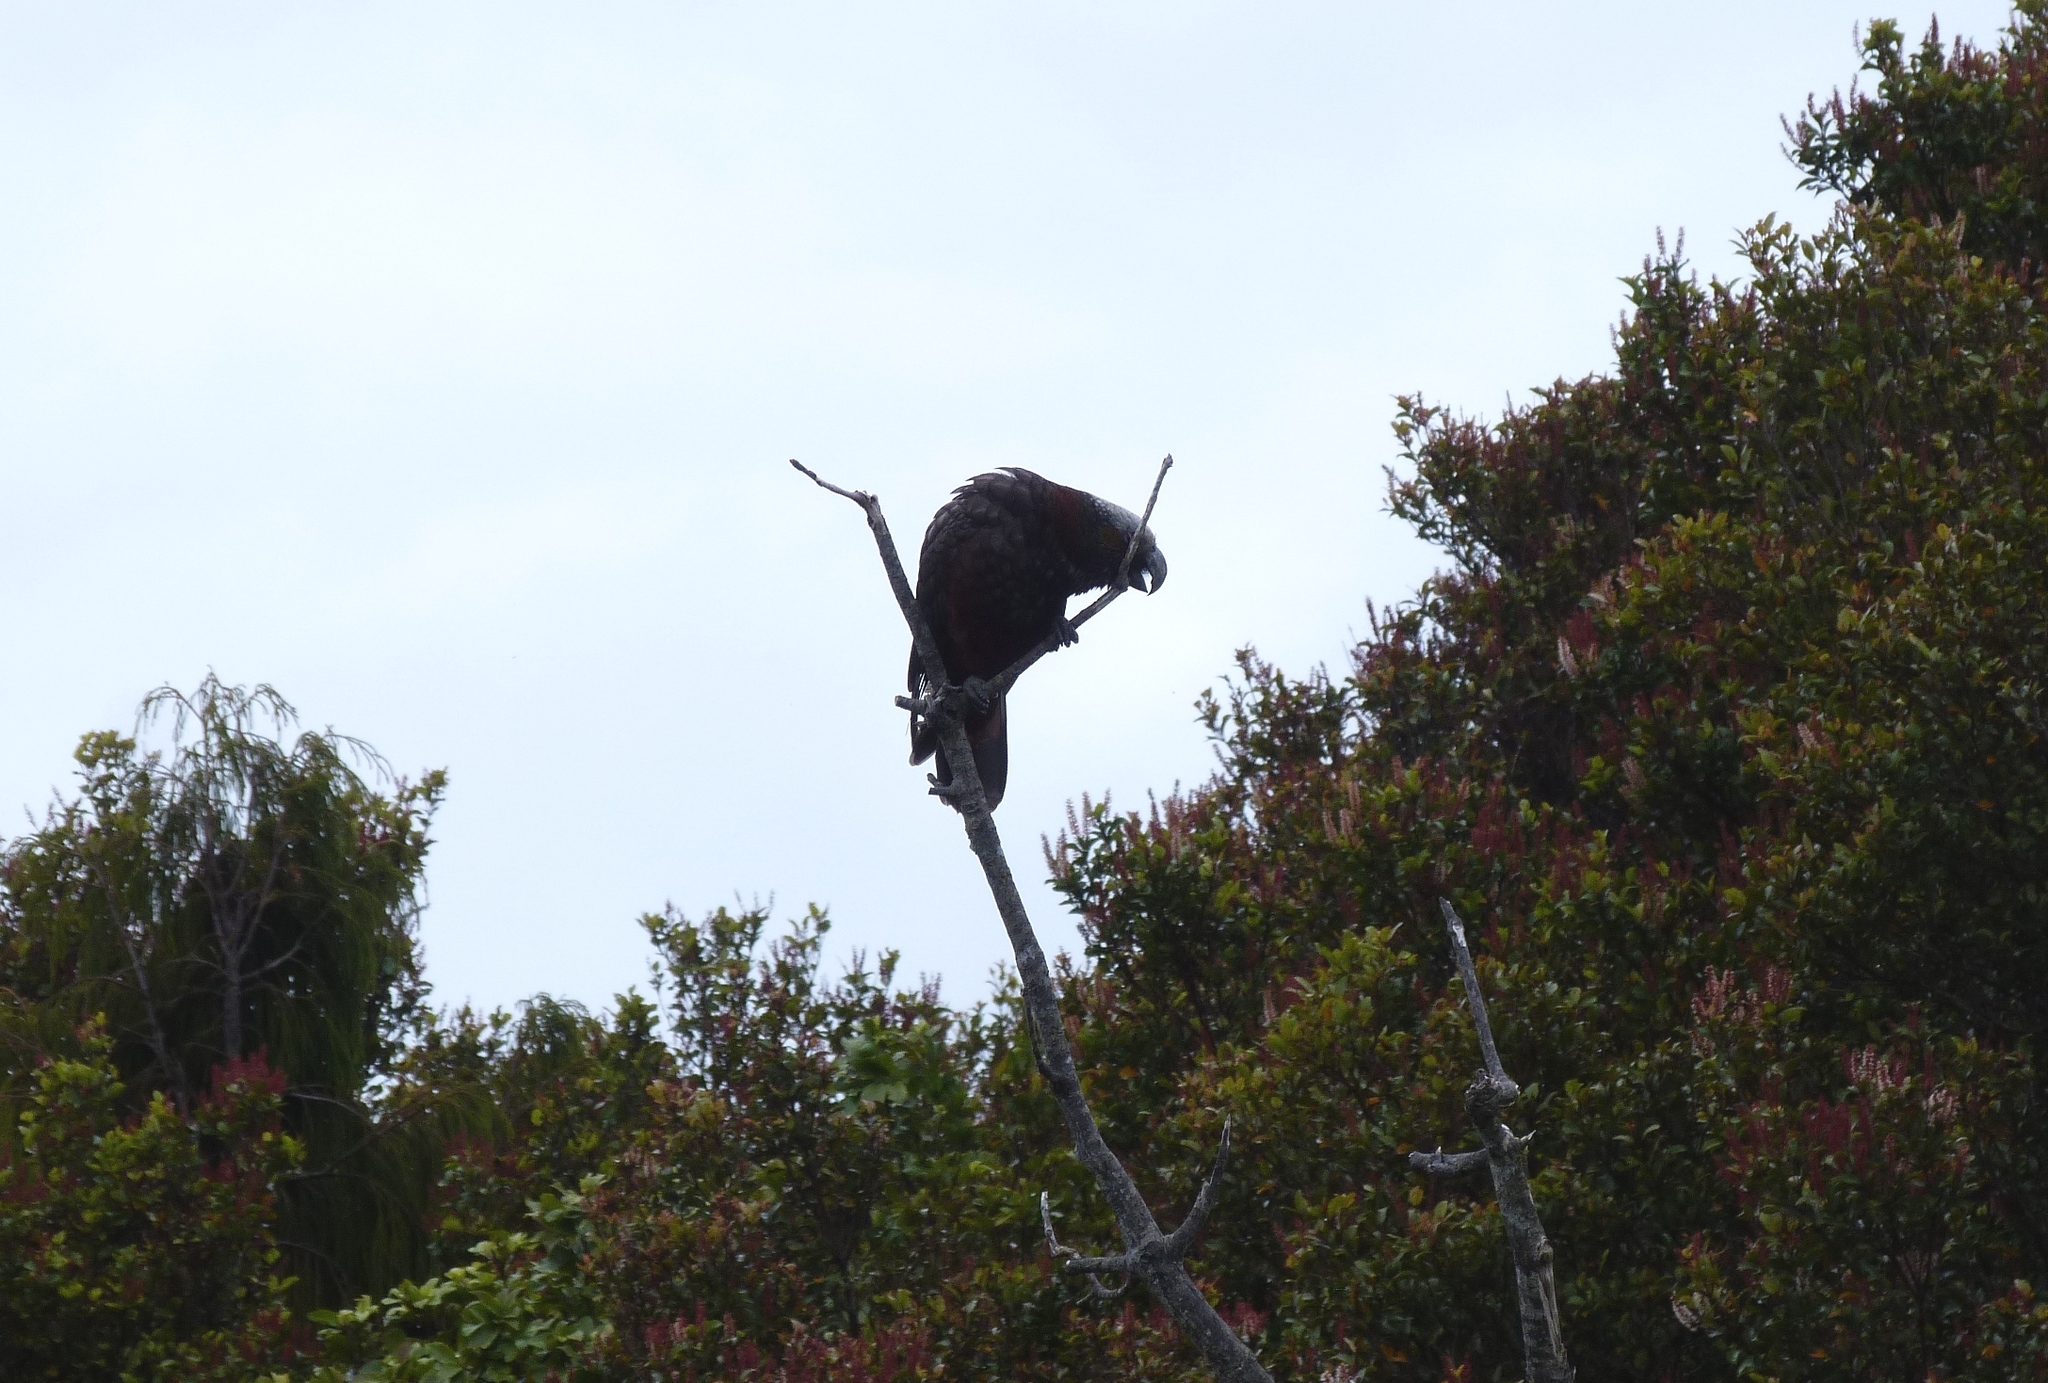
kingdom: Animalia
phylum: Chordata
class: Aves
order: Psittaciformes
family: Psittacidae
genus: Nestor
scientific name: Nestor meridionalis
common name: New zealand kaka
